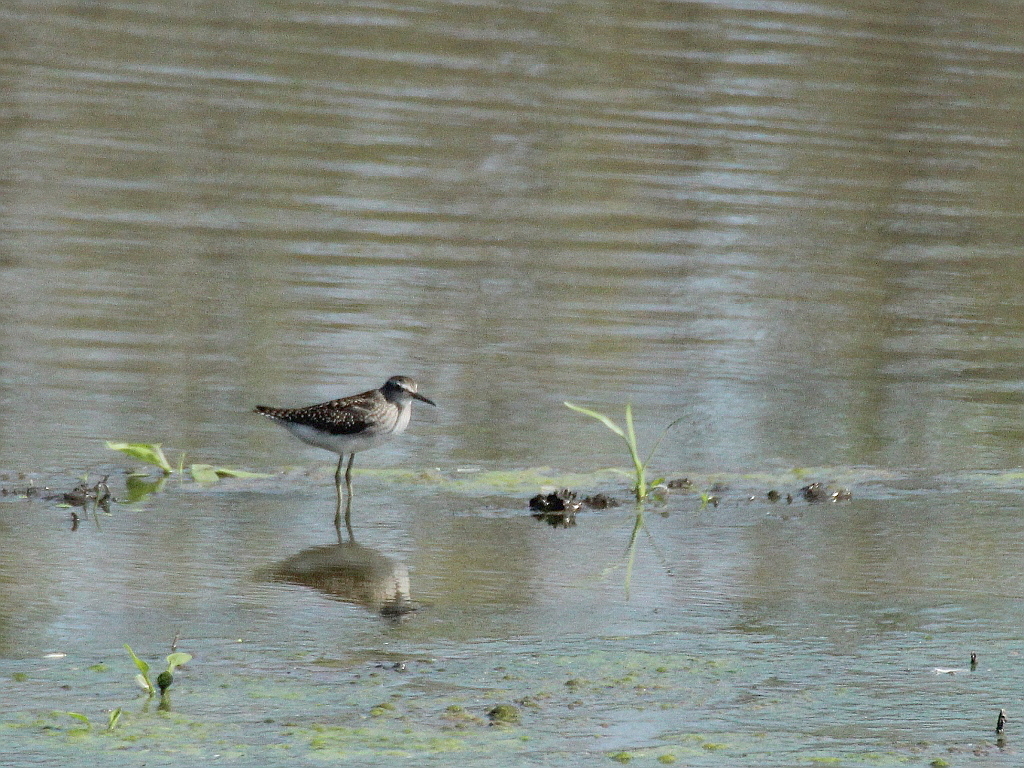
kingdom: Animalia
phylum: Chordata
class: Aves
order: Charadriiformes
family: Scolopacidae
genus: Tringa
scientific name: Tringa glareola
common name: Wood sandpiper
